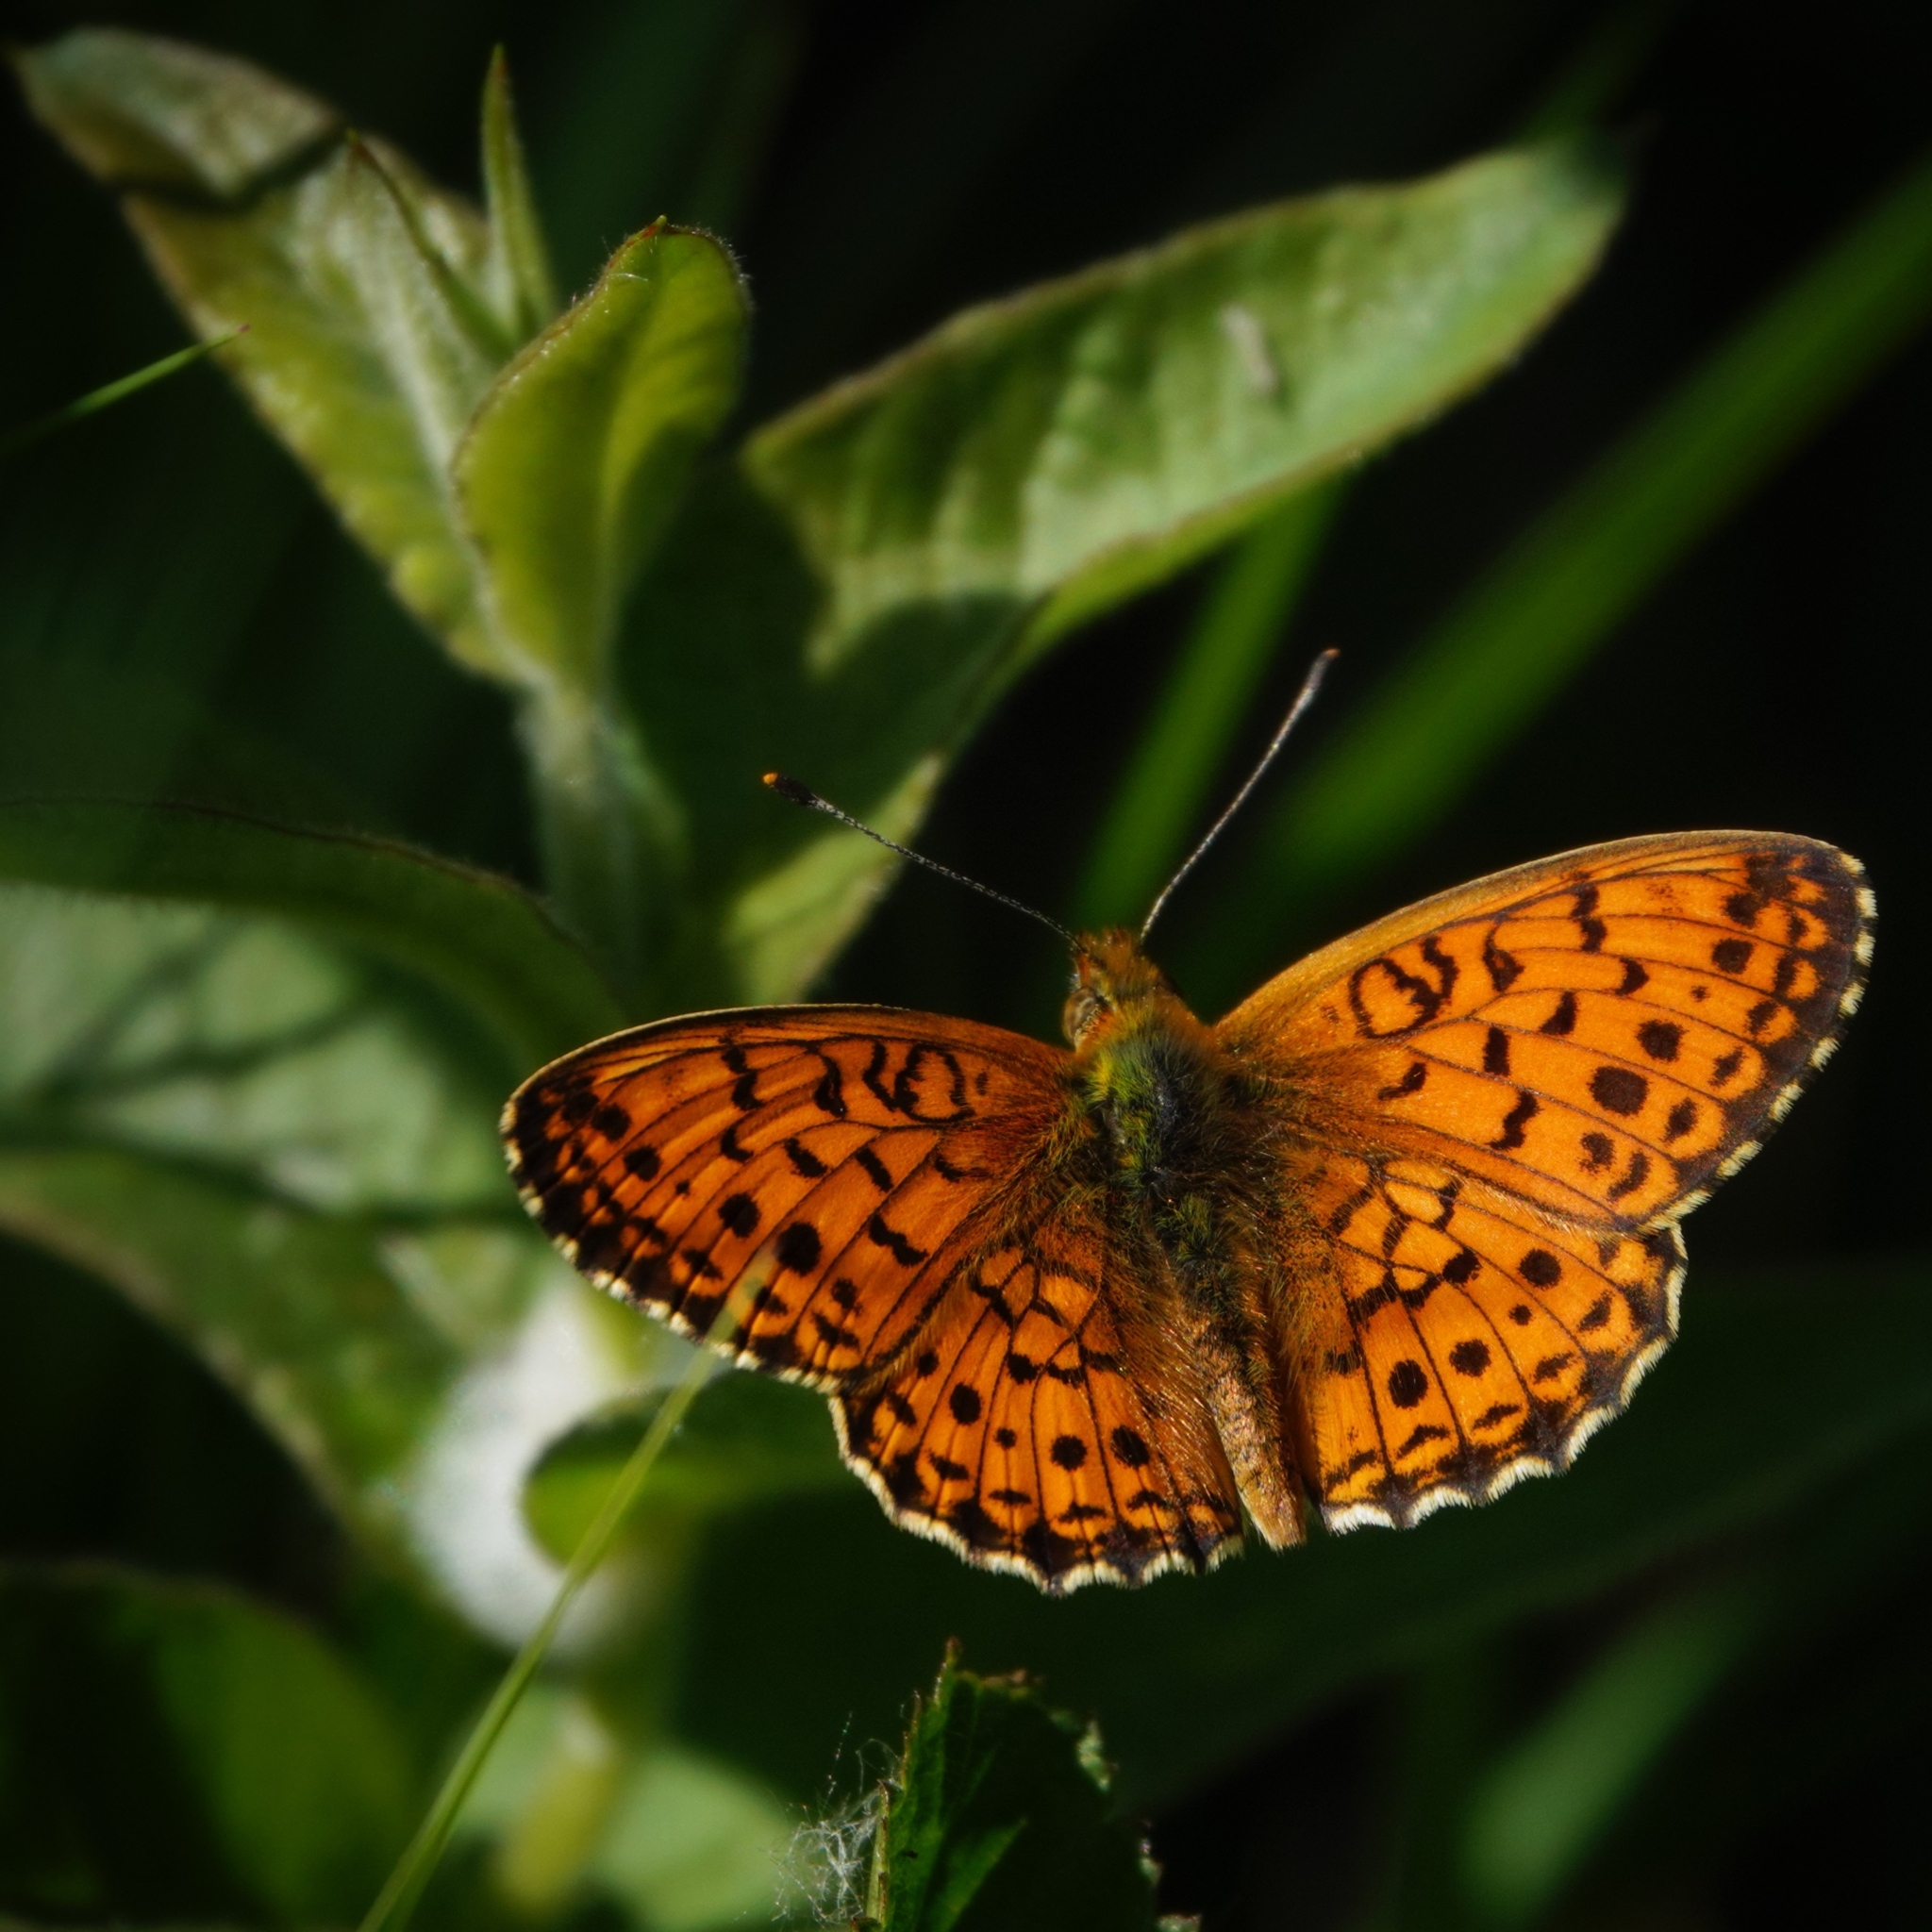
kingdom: Animalia
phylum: Arthropoda
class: Insecta
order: Lepidoptera
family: Nymphalidae
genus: Brenthis
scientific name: Brenthis ino
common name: Lesser marbled fritillary
